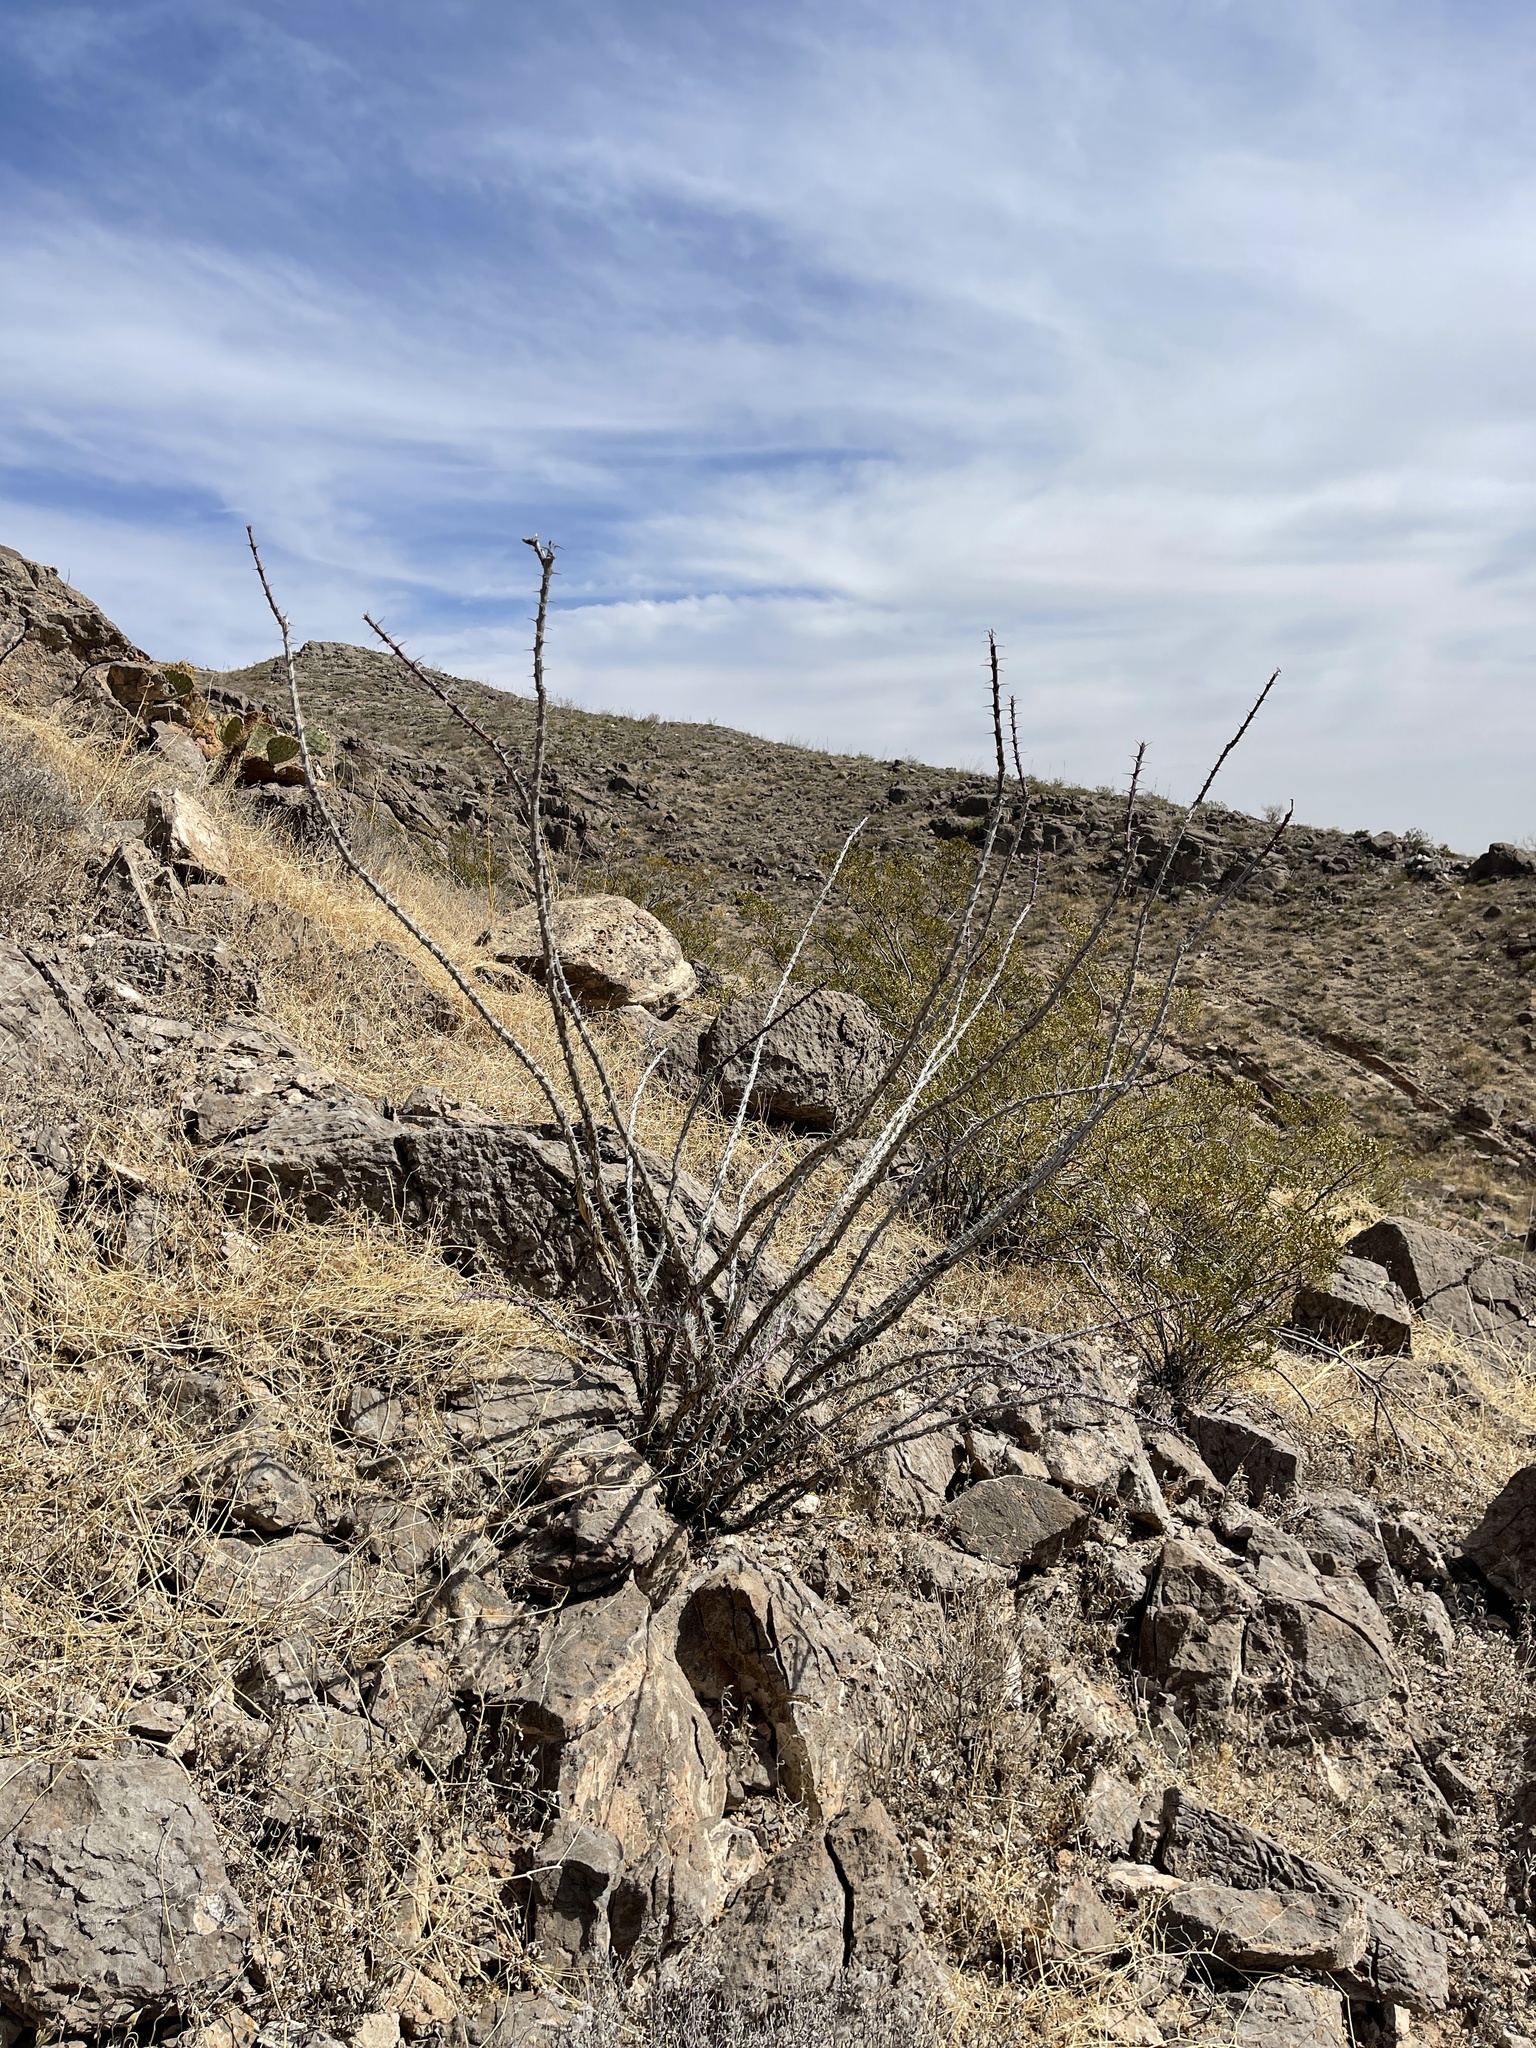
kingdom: Plantae
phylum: Tracheophyta
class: Magnoliopsida
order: Ericales
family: Fouquieriaceae
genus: Fouquieria
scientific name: Fouquieria splendens
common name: Vine-cactus
